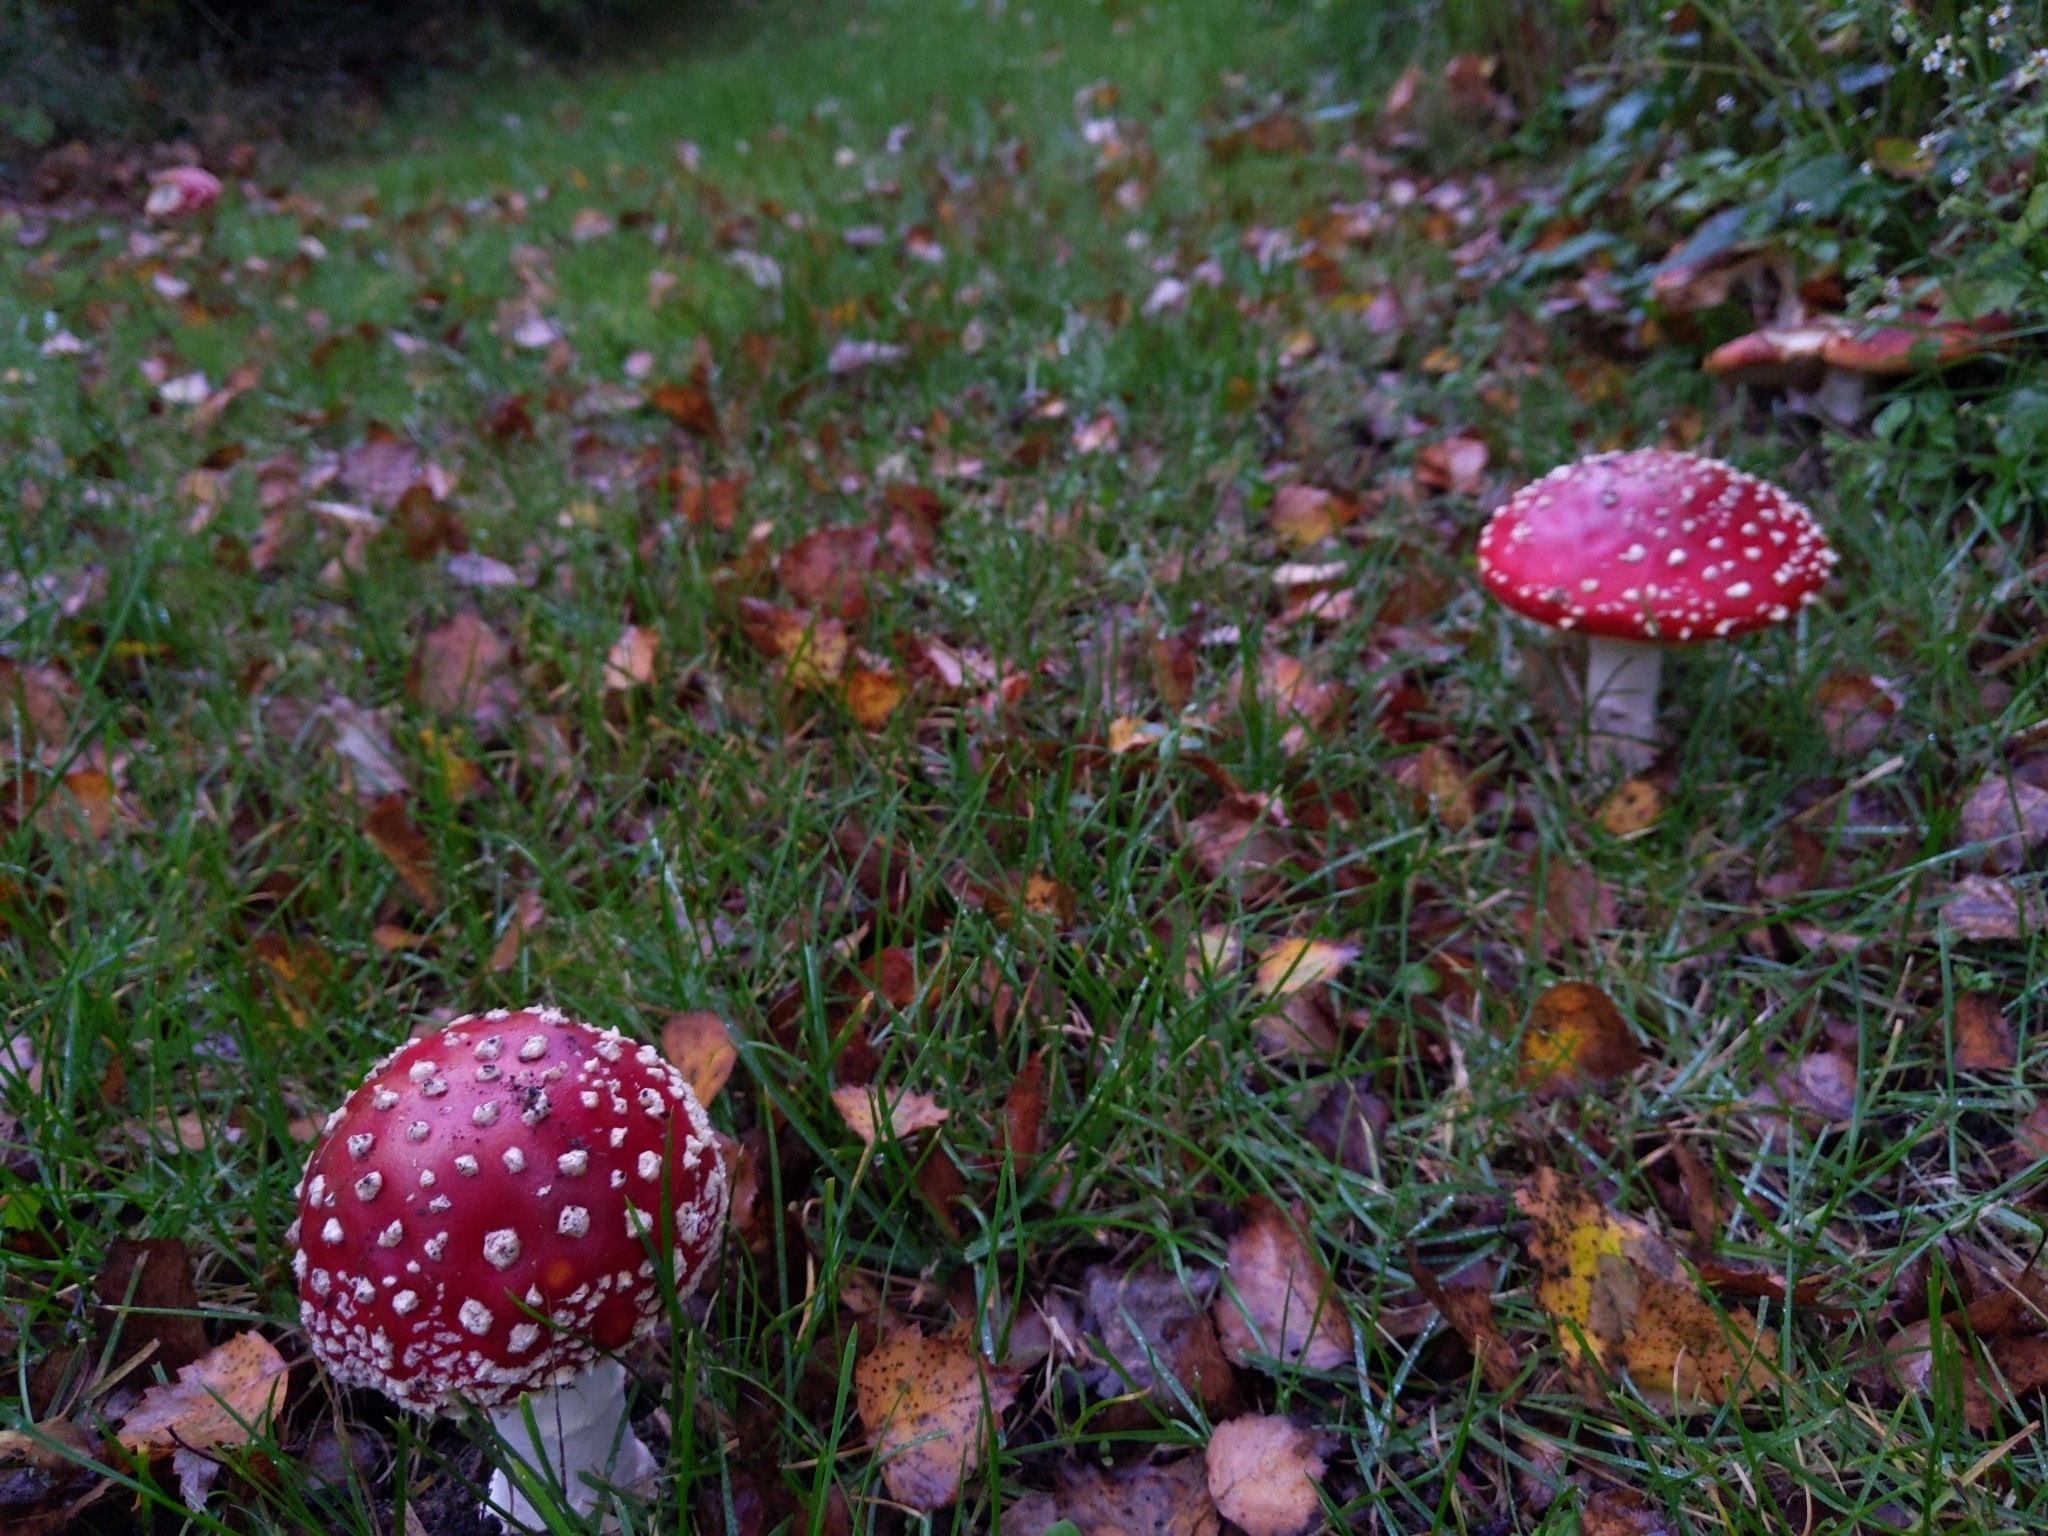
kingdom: Fungi
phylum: Basidiomycota
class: Agaricomycetes
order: Agaricales
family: Amanitaceae
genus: Amanita
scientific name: Amanita muscaria
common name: Fly agaric
